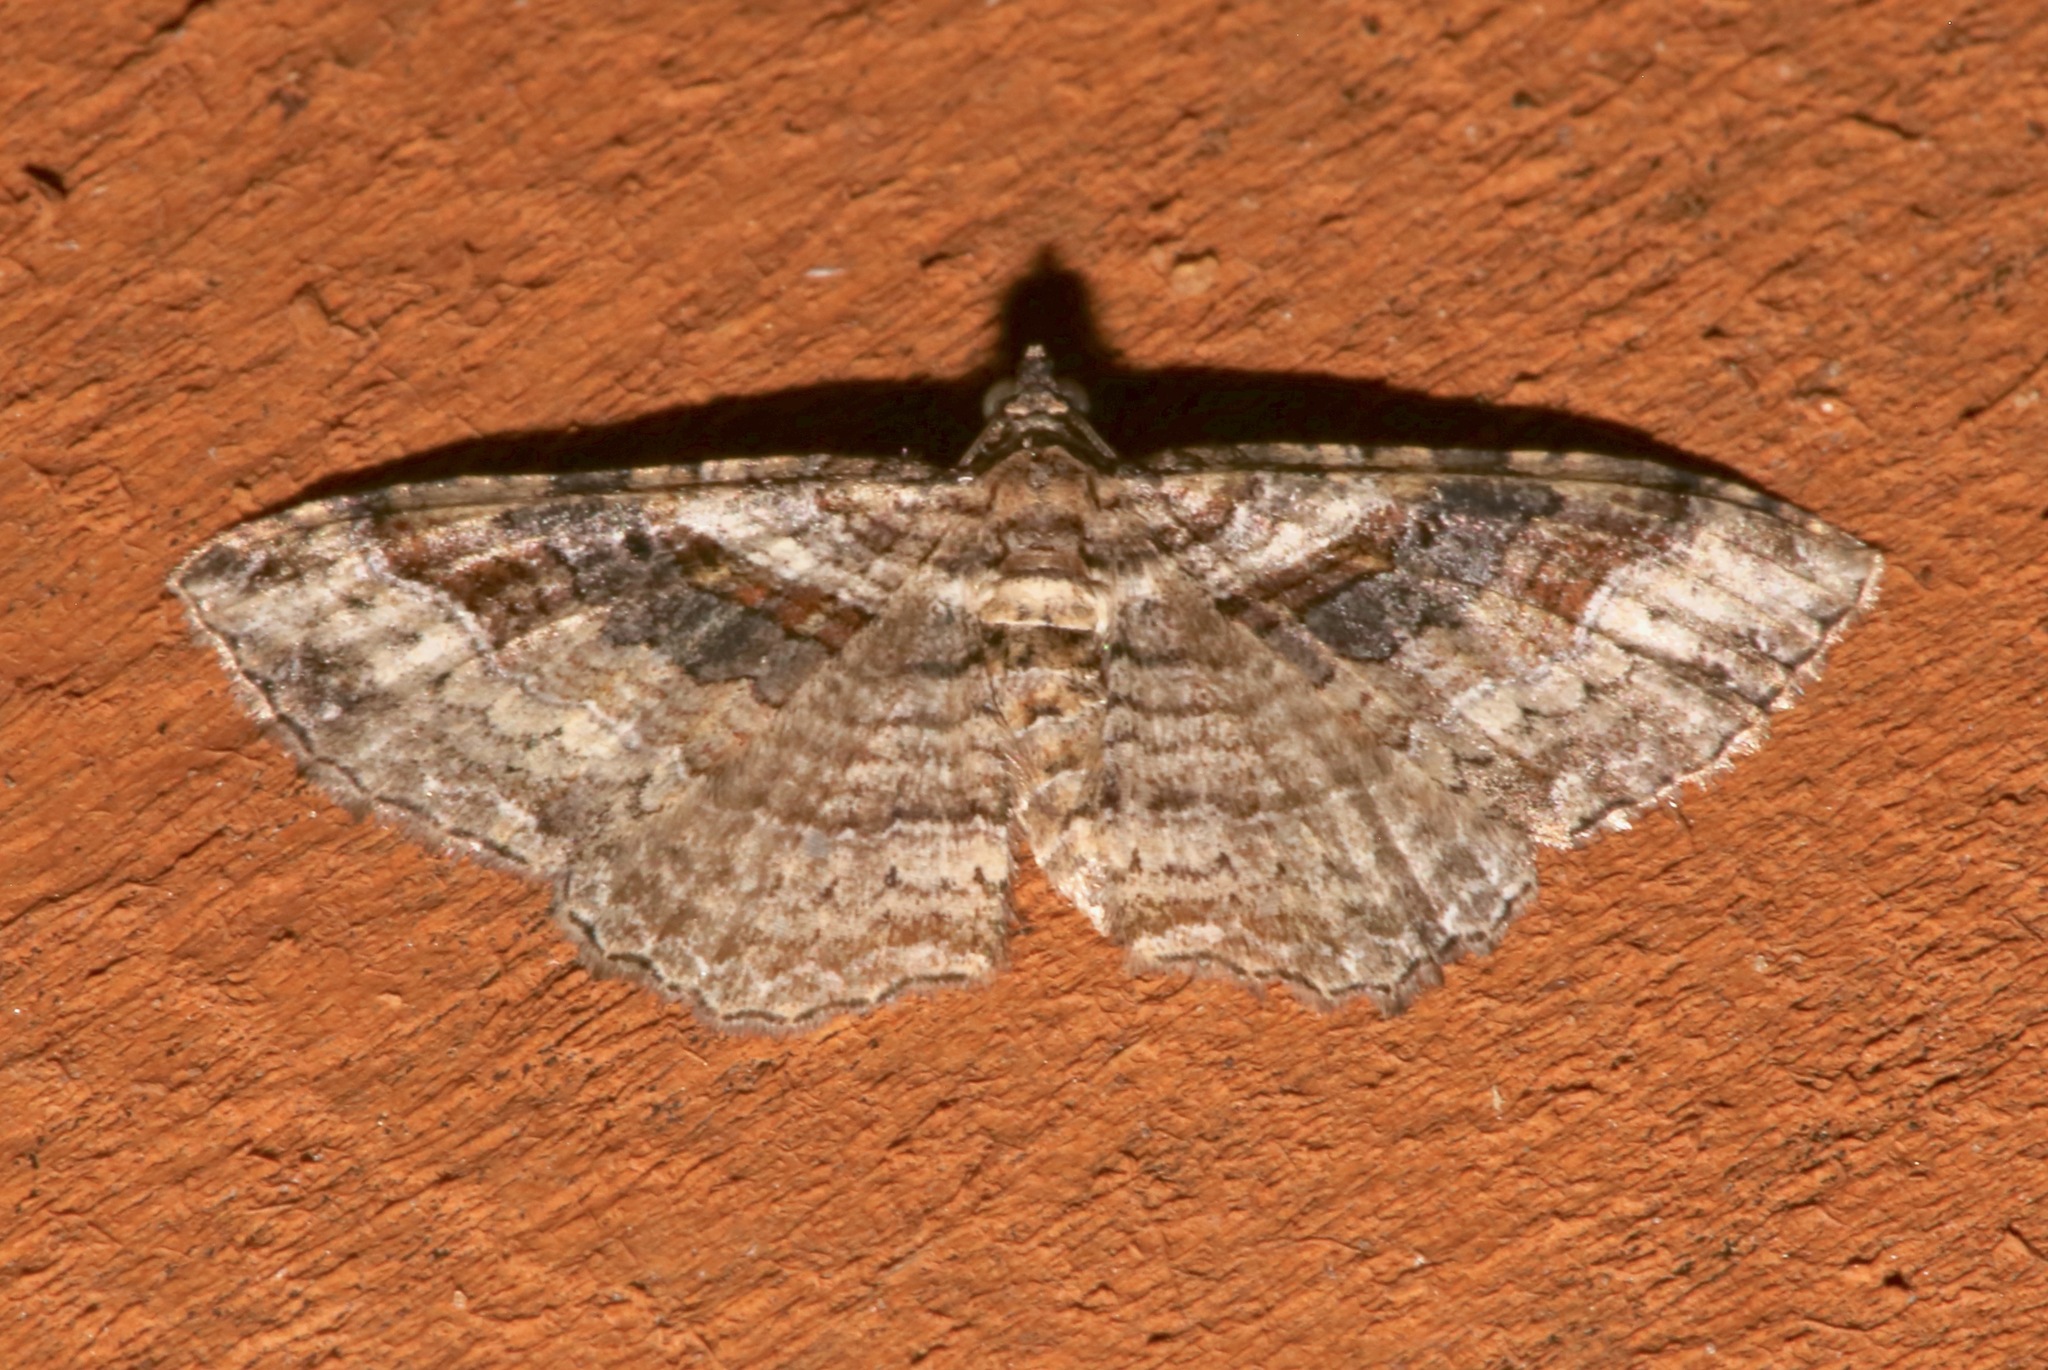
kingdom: Animalia
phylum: Arthropoda
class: Insecta
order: Lepidoptera
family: Geometridae
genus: Costaconvexa
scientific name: Costaconvexa centrostrigaria
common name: Bent-line carpet
